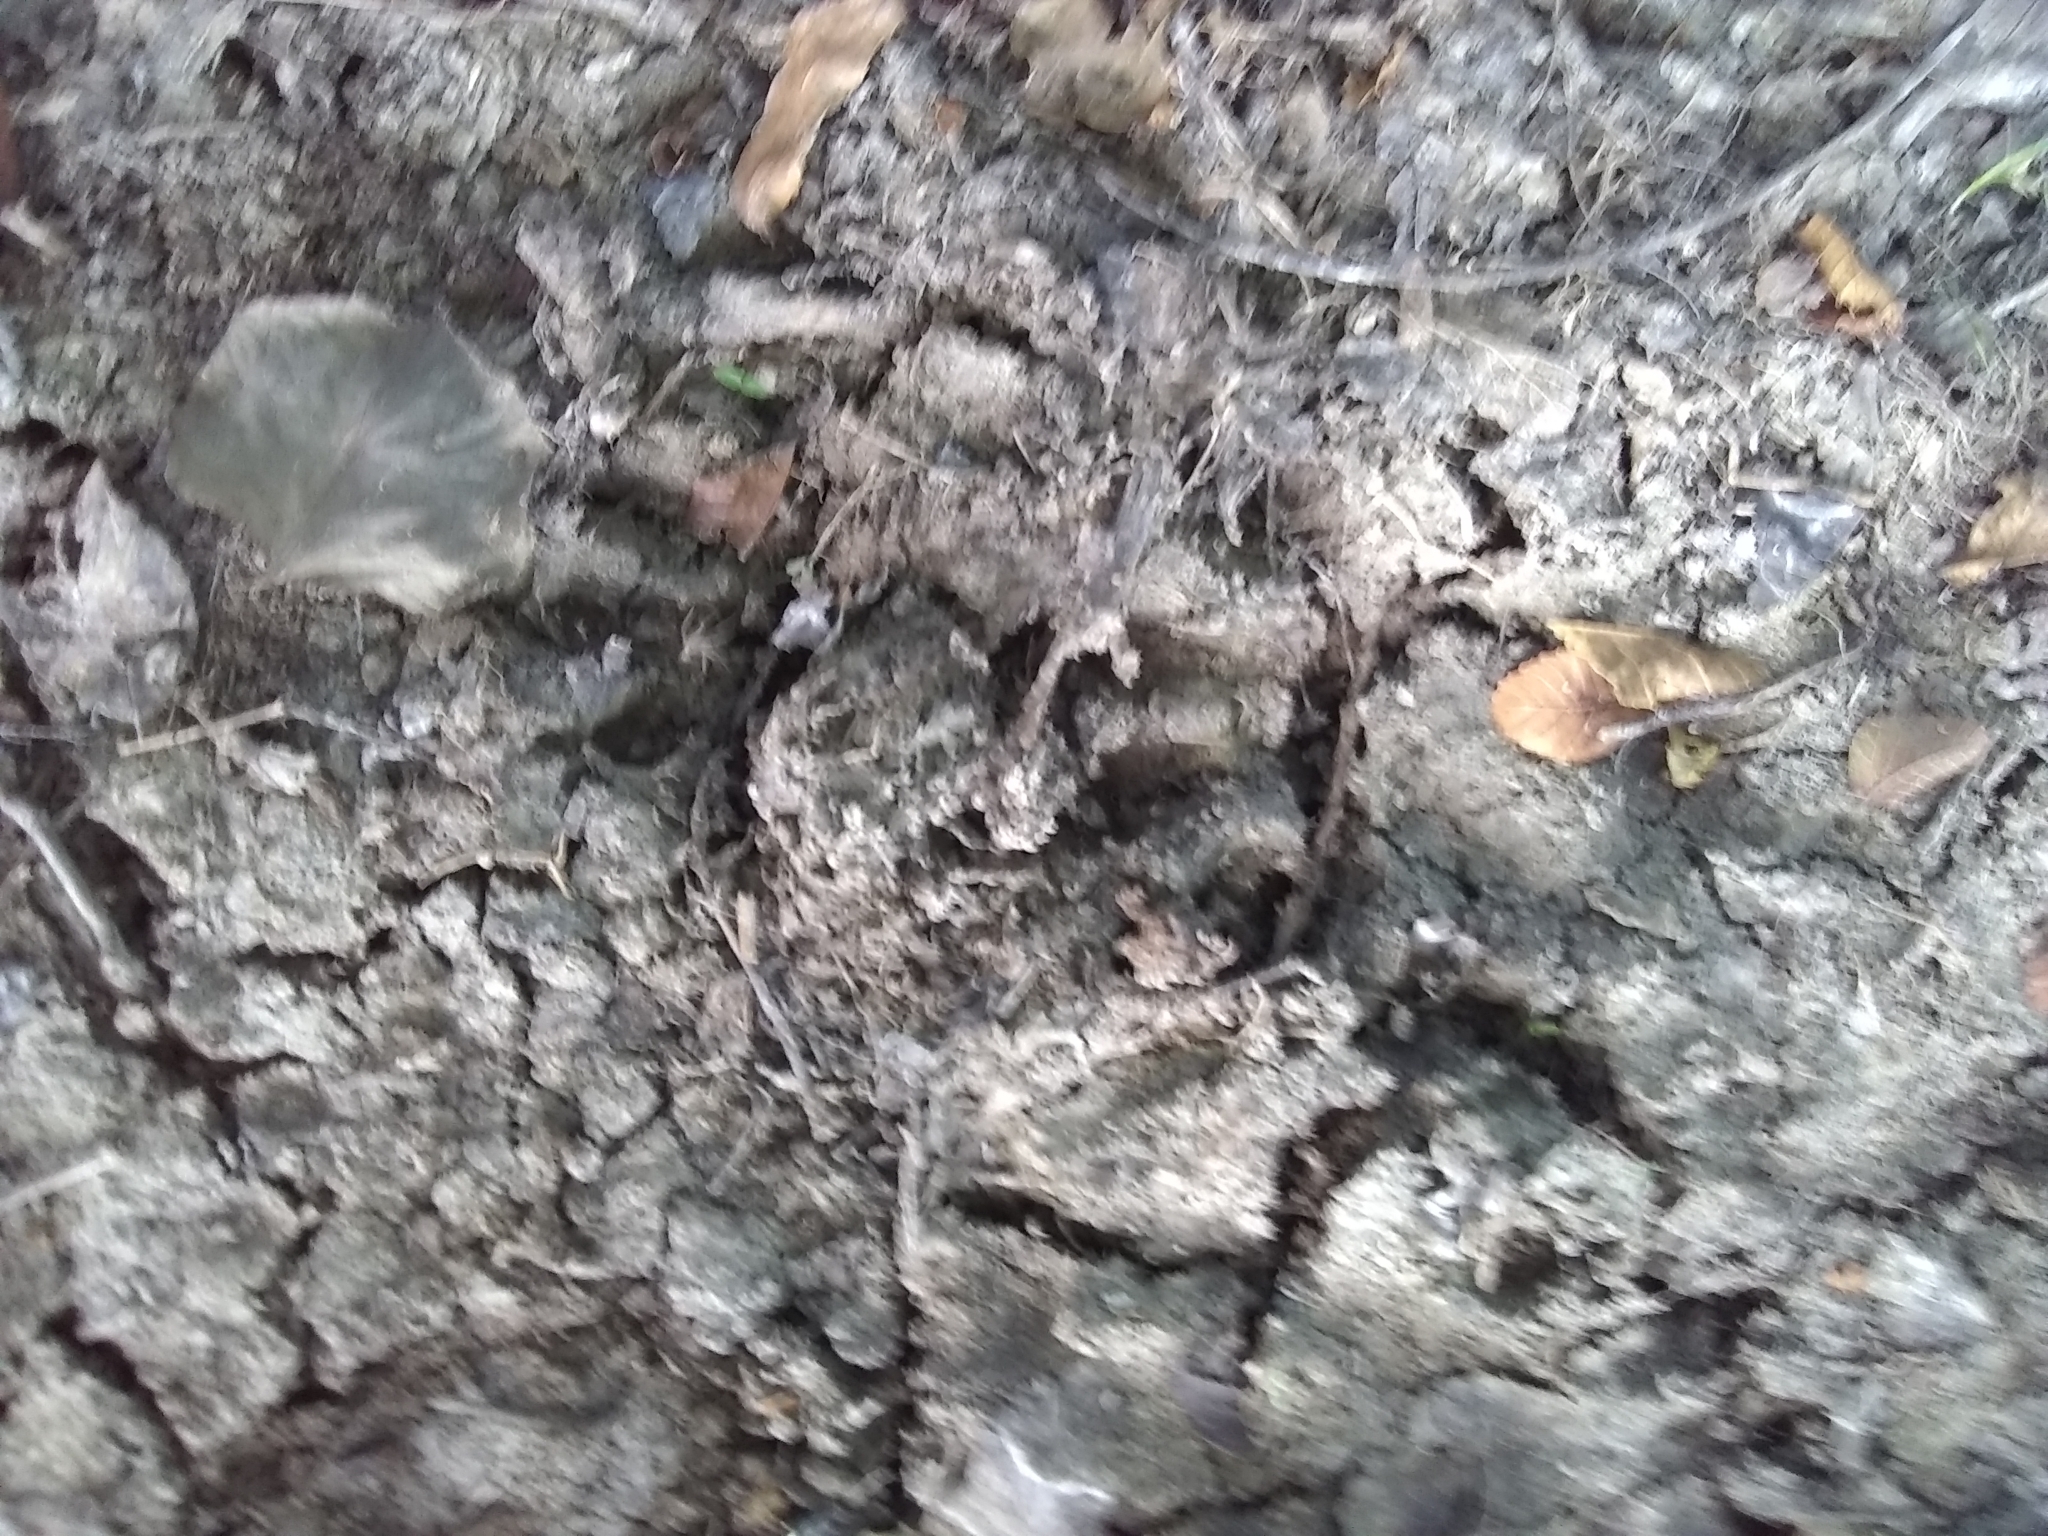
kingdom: Animalia
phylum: Chordata
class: Mammalia
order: Carnivora
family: Procyonidae
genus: Procyon
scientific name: Procyon lotor
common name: Raccoon
